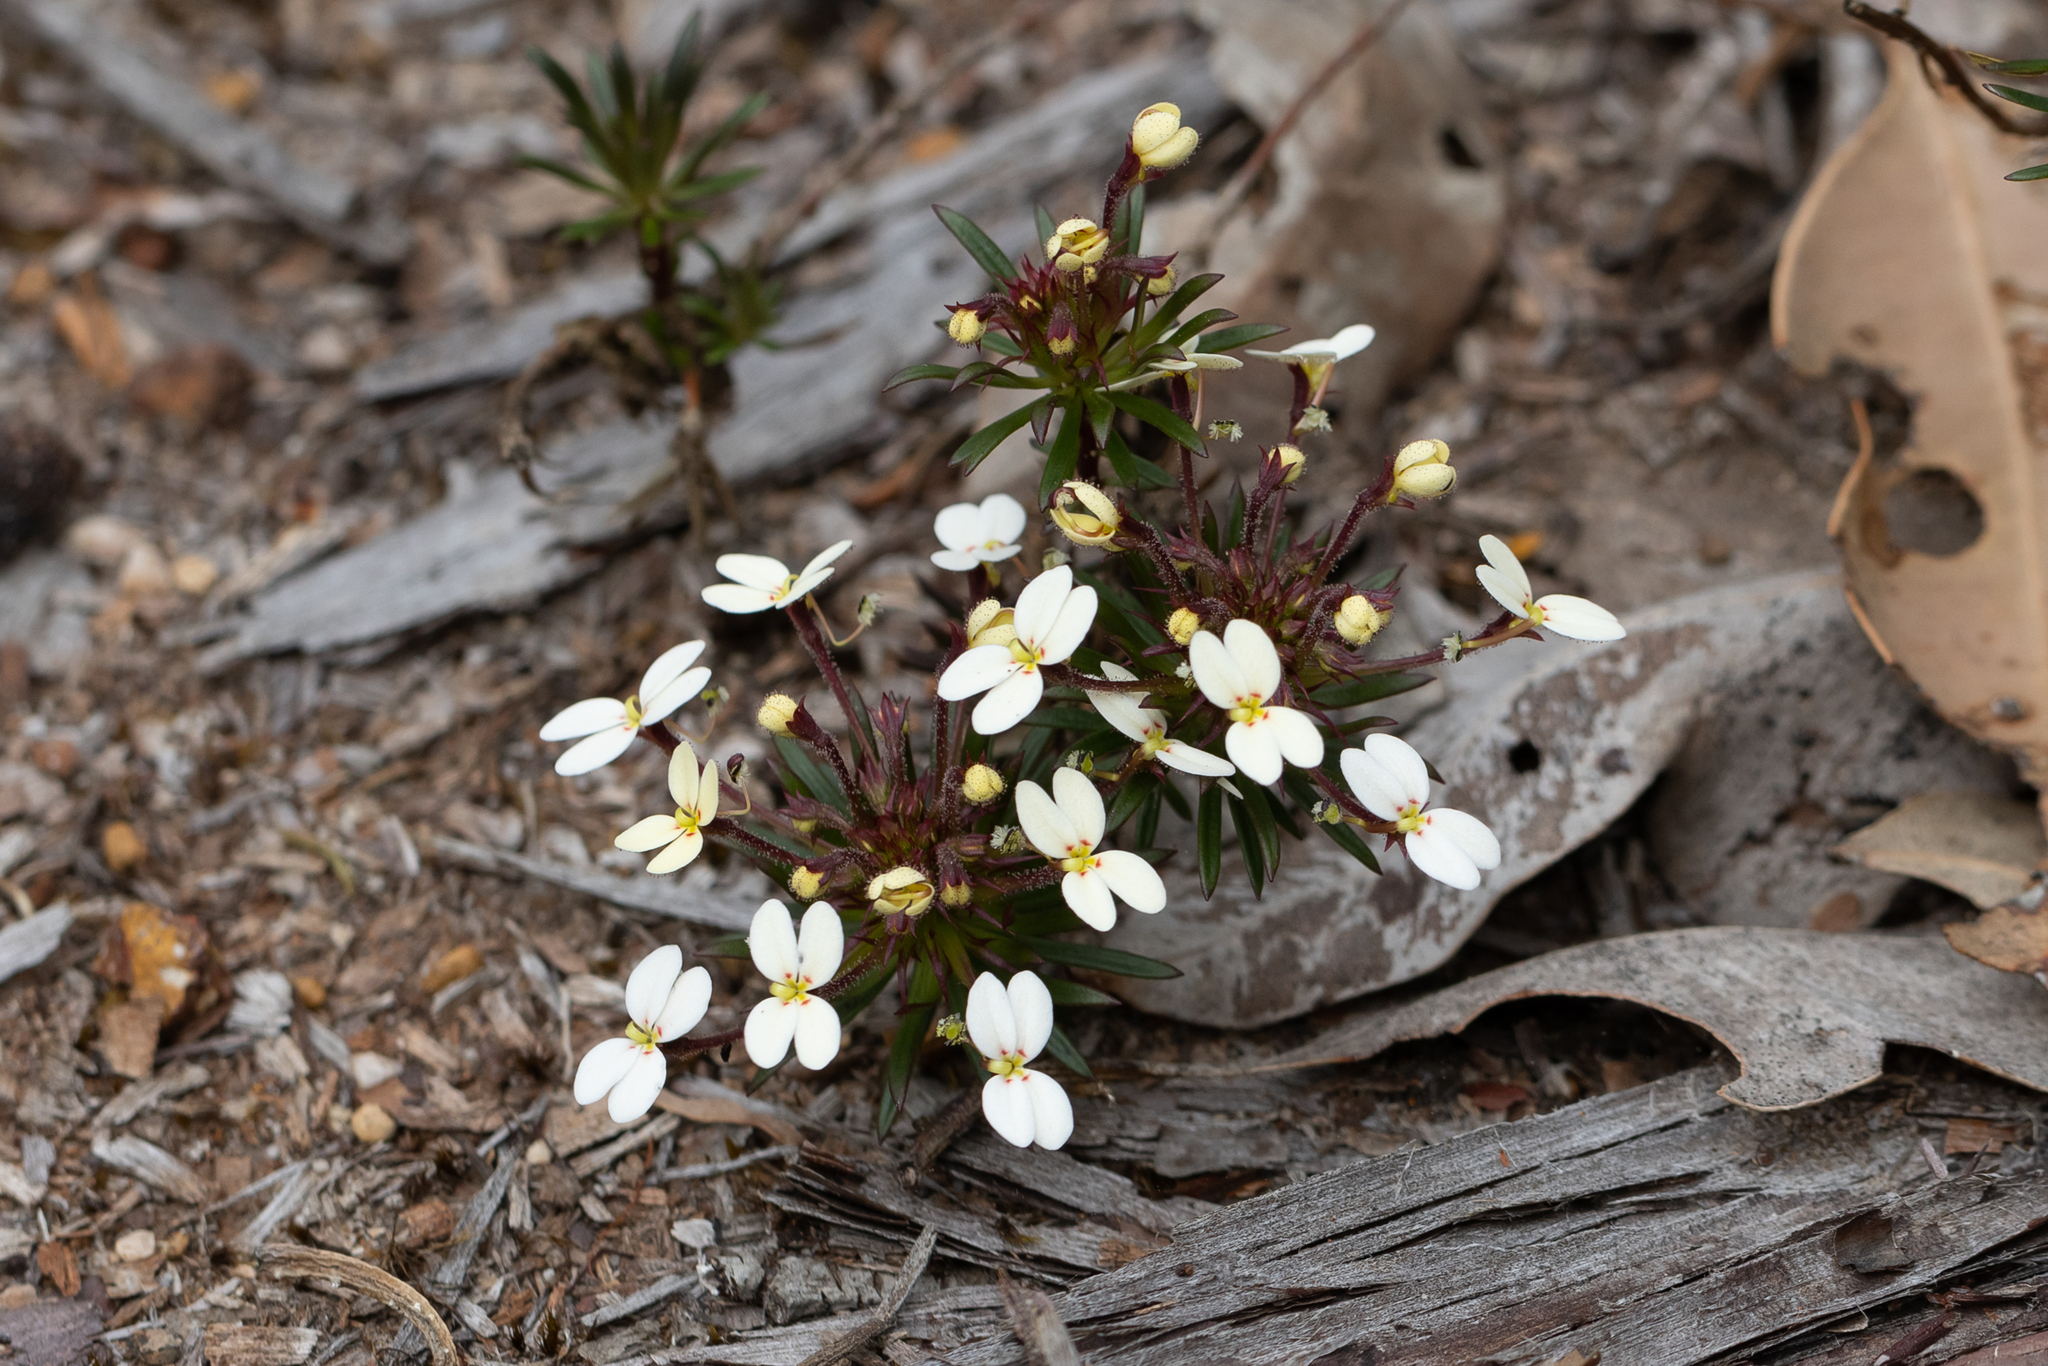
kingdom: Plantae
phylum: Tracheophyta
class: Magnoliopsida
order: Asterales
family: Stylidiaceae
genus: Stylidium
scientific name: Stylidium rhynchocarpum
